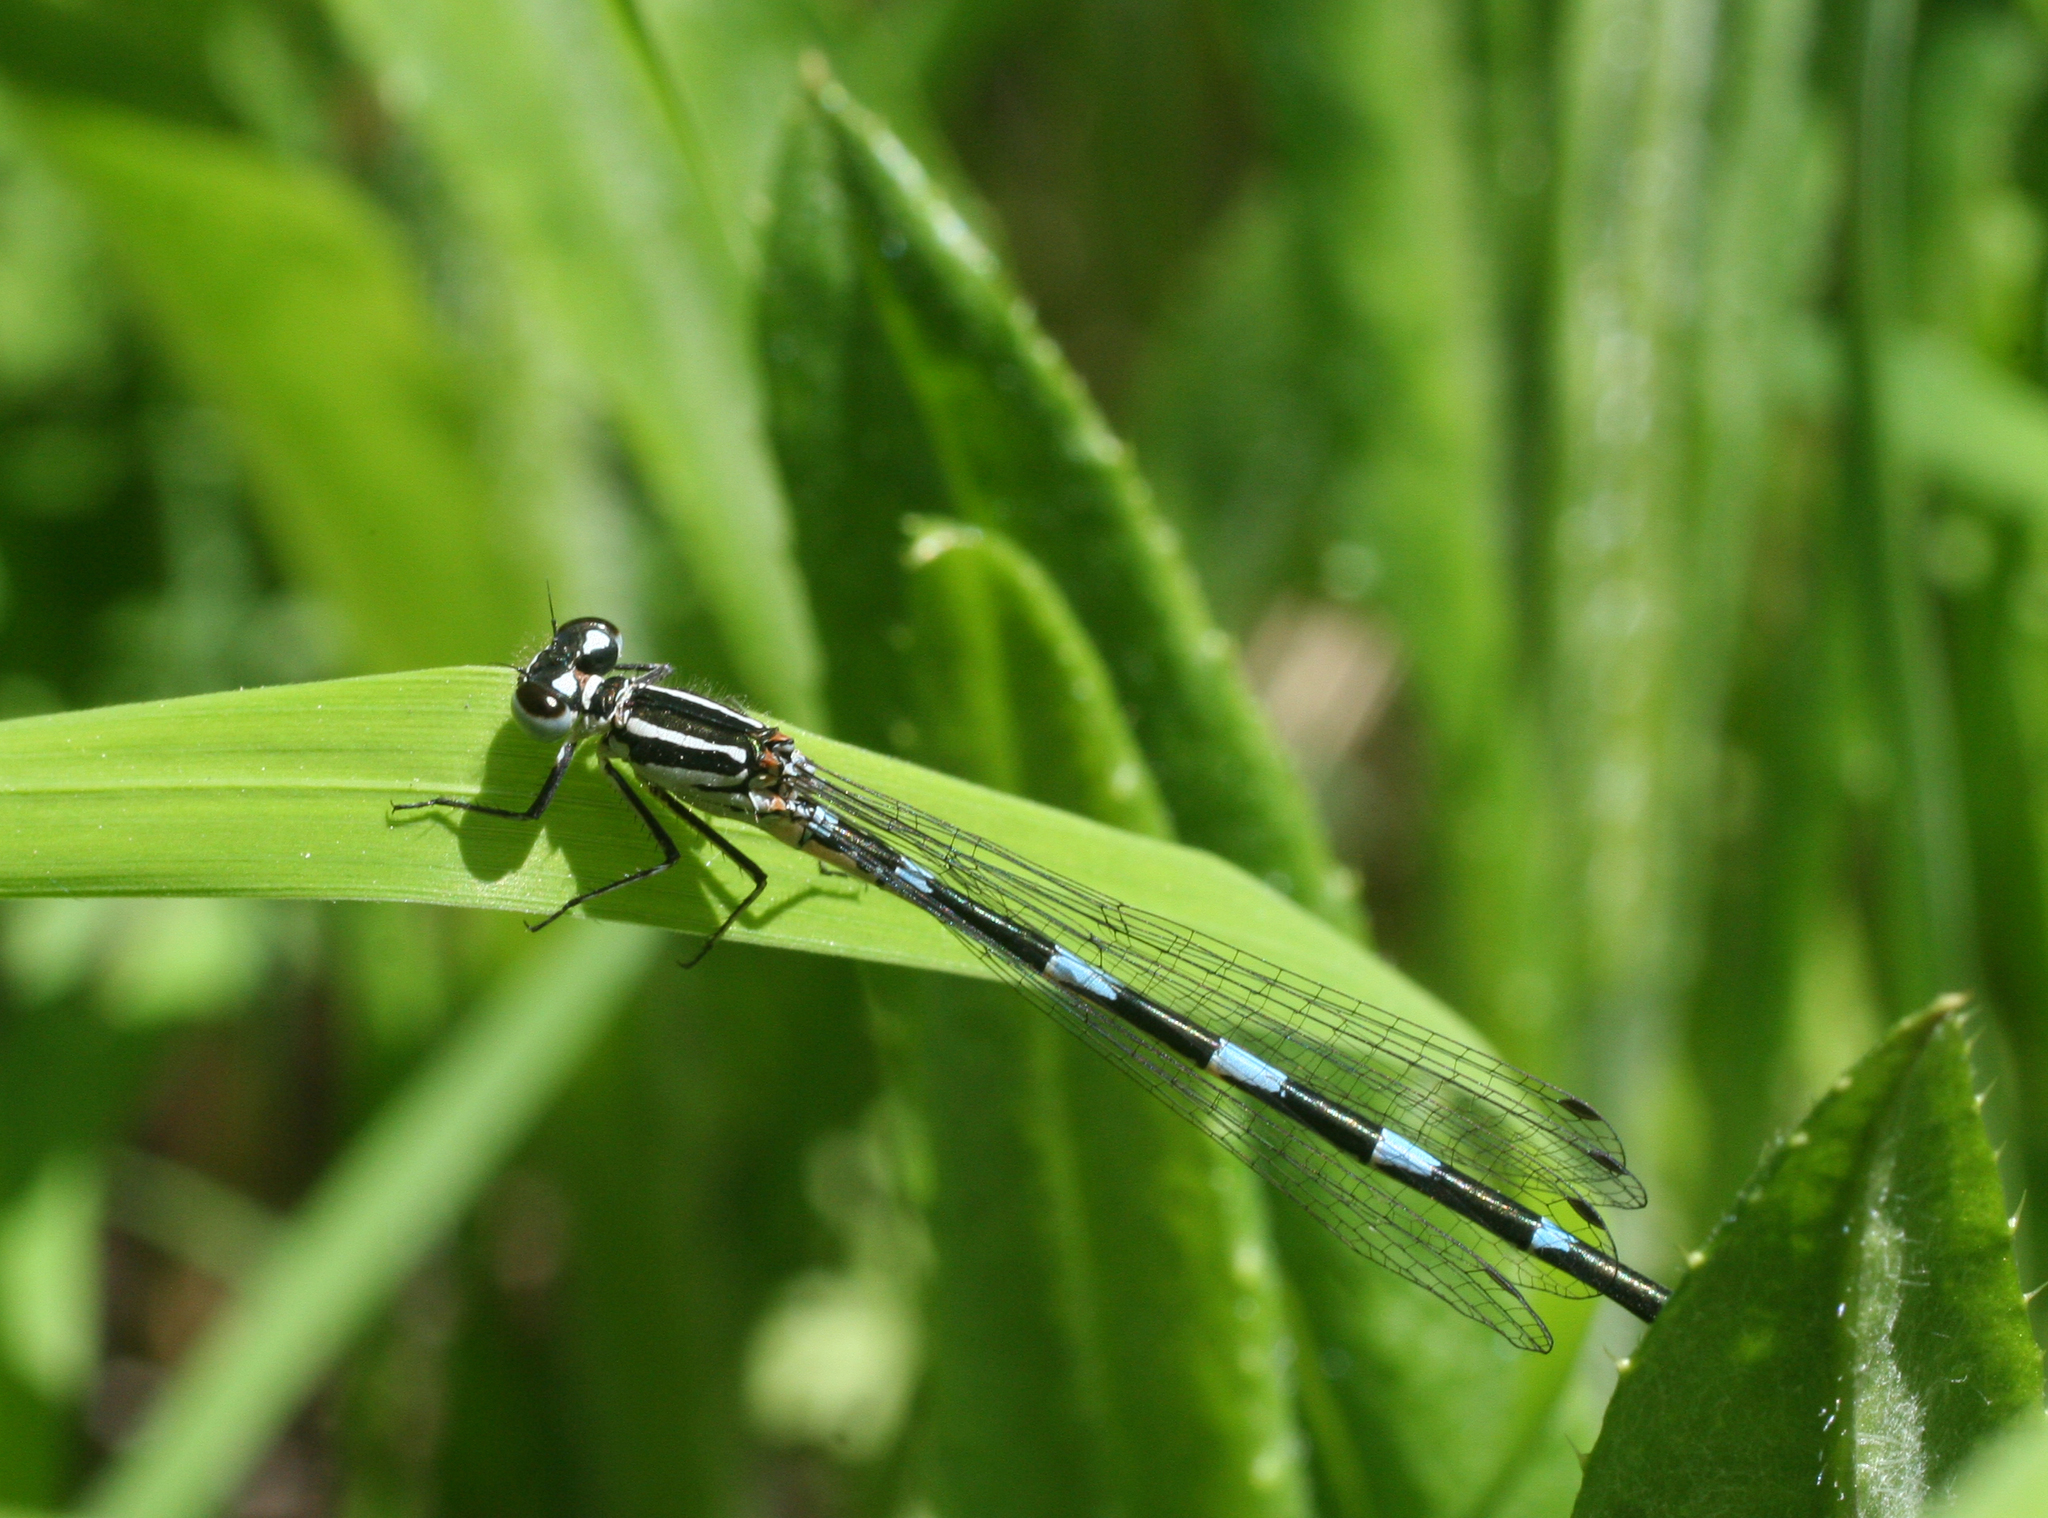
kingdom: Animalia
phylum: Arthropoda
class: Insecta
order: Odonata
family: Coenagrionidae
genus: Coenagrion
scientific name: Coenagrion puella
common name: Azure damselfly
